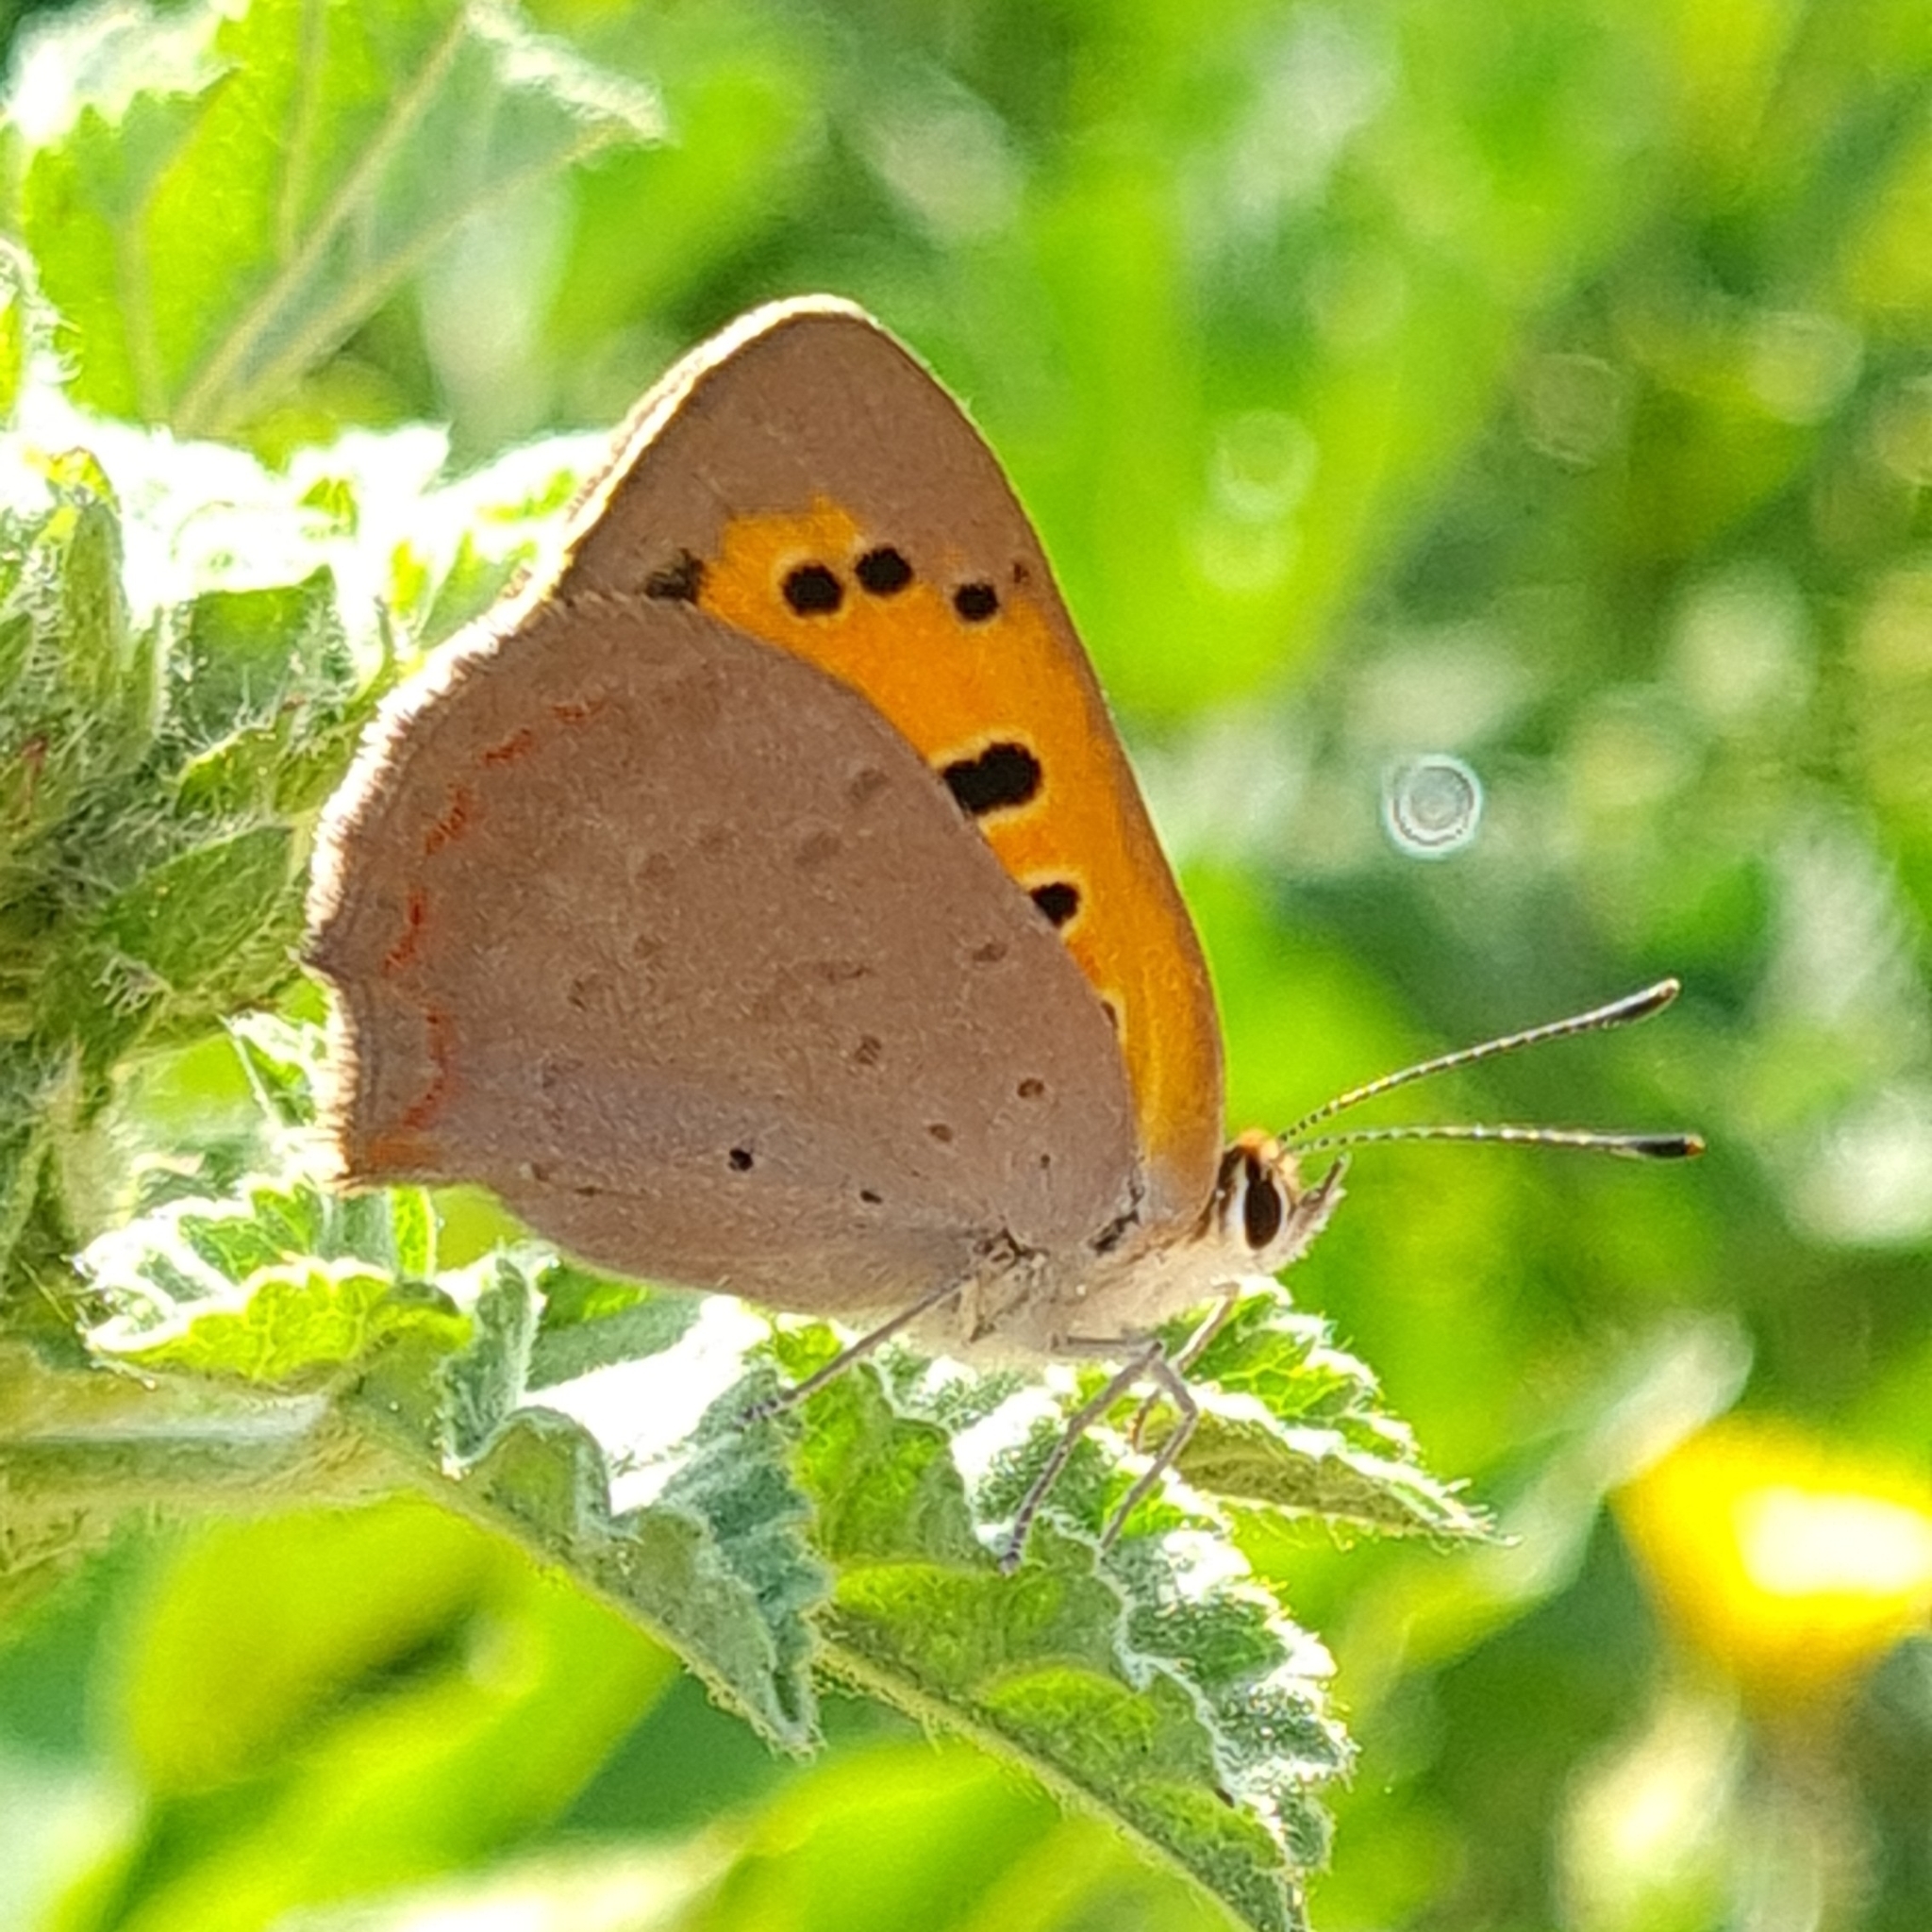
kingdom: Animalia
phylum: Arthropoda
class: Insecta
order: Lepidoptera
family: Lycaenidae
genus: Lycaena
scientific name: Lycaena phlaeas
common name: Small copper
